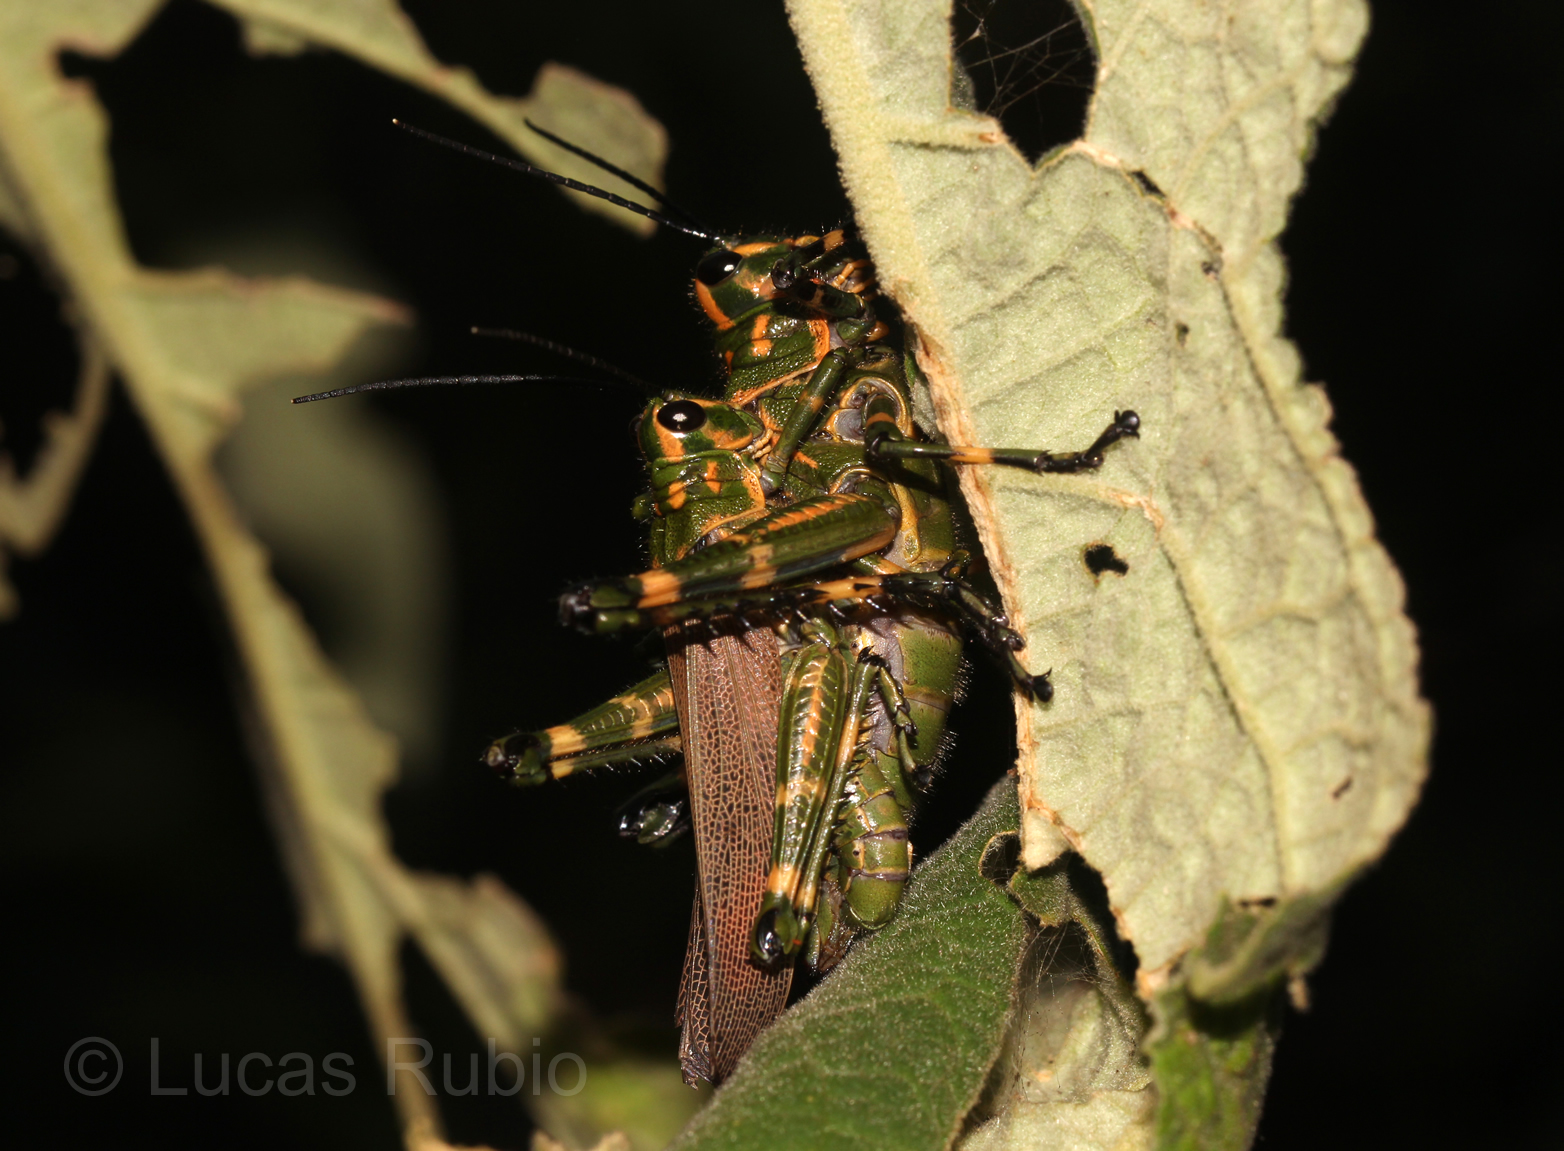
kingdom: Animalia
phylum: Arthropoda
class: Insecta
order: Orthoptera
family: Romaleidae
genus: Chromacris
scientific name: Chromacris speciosa
